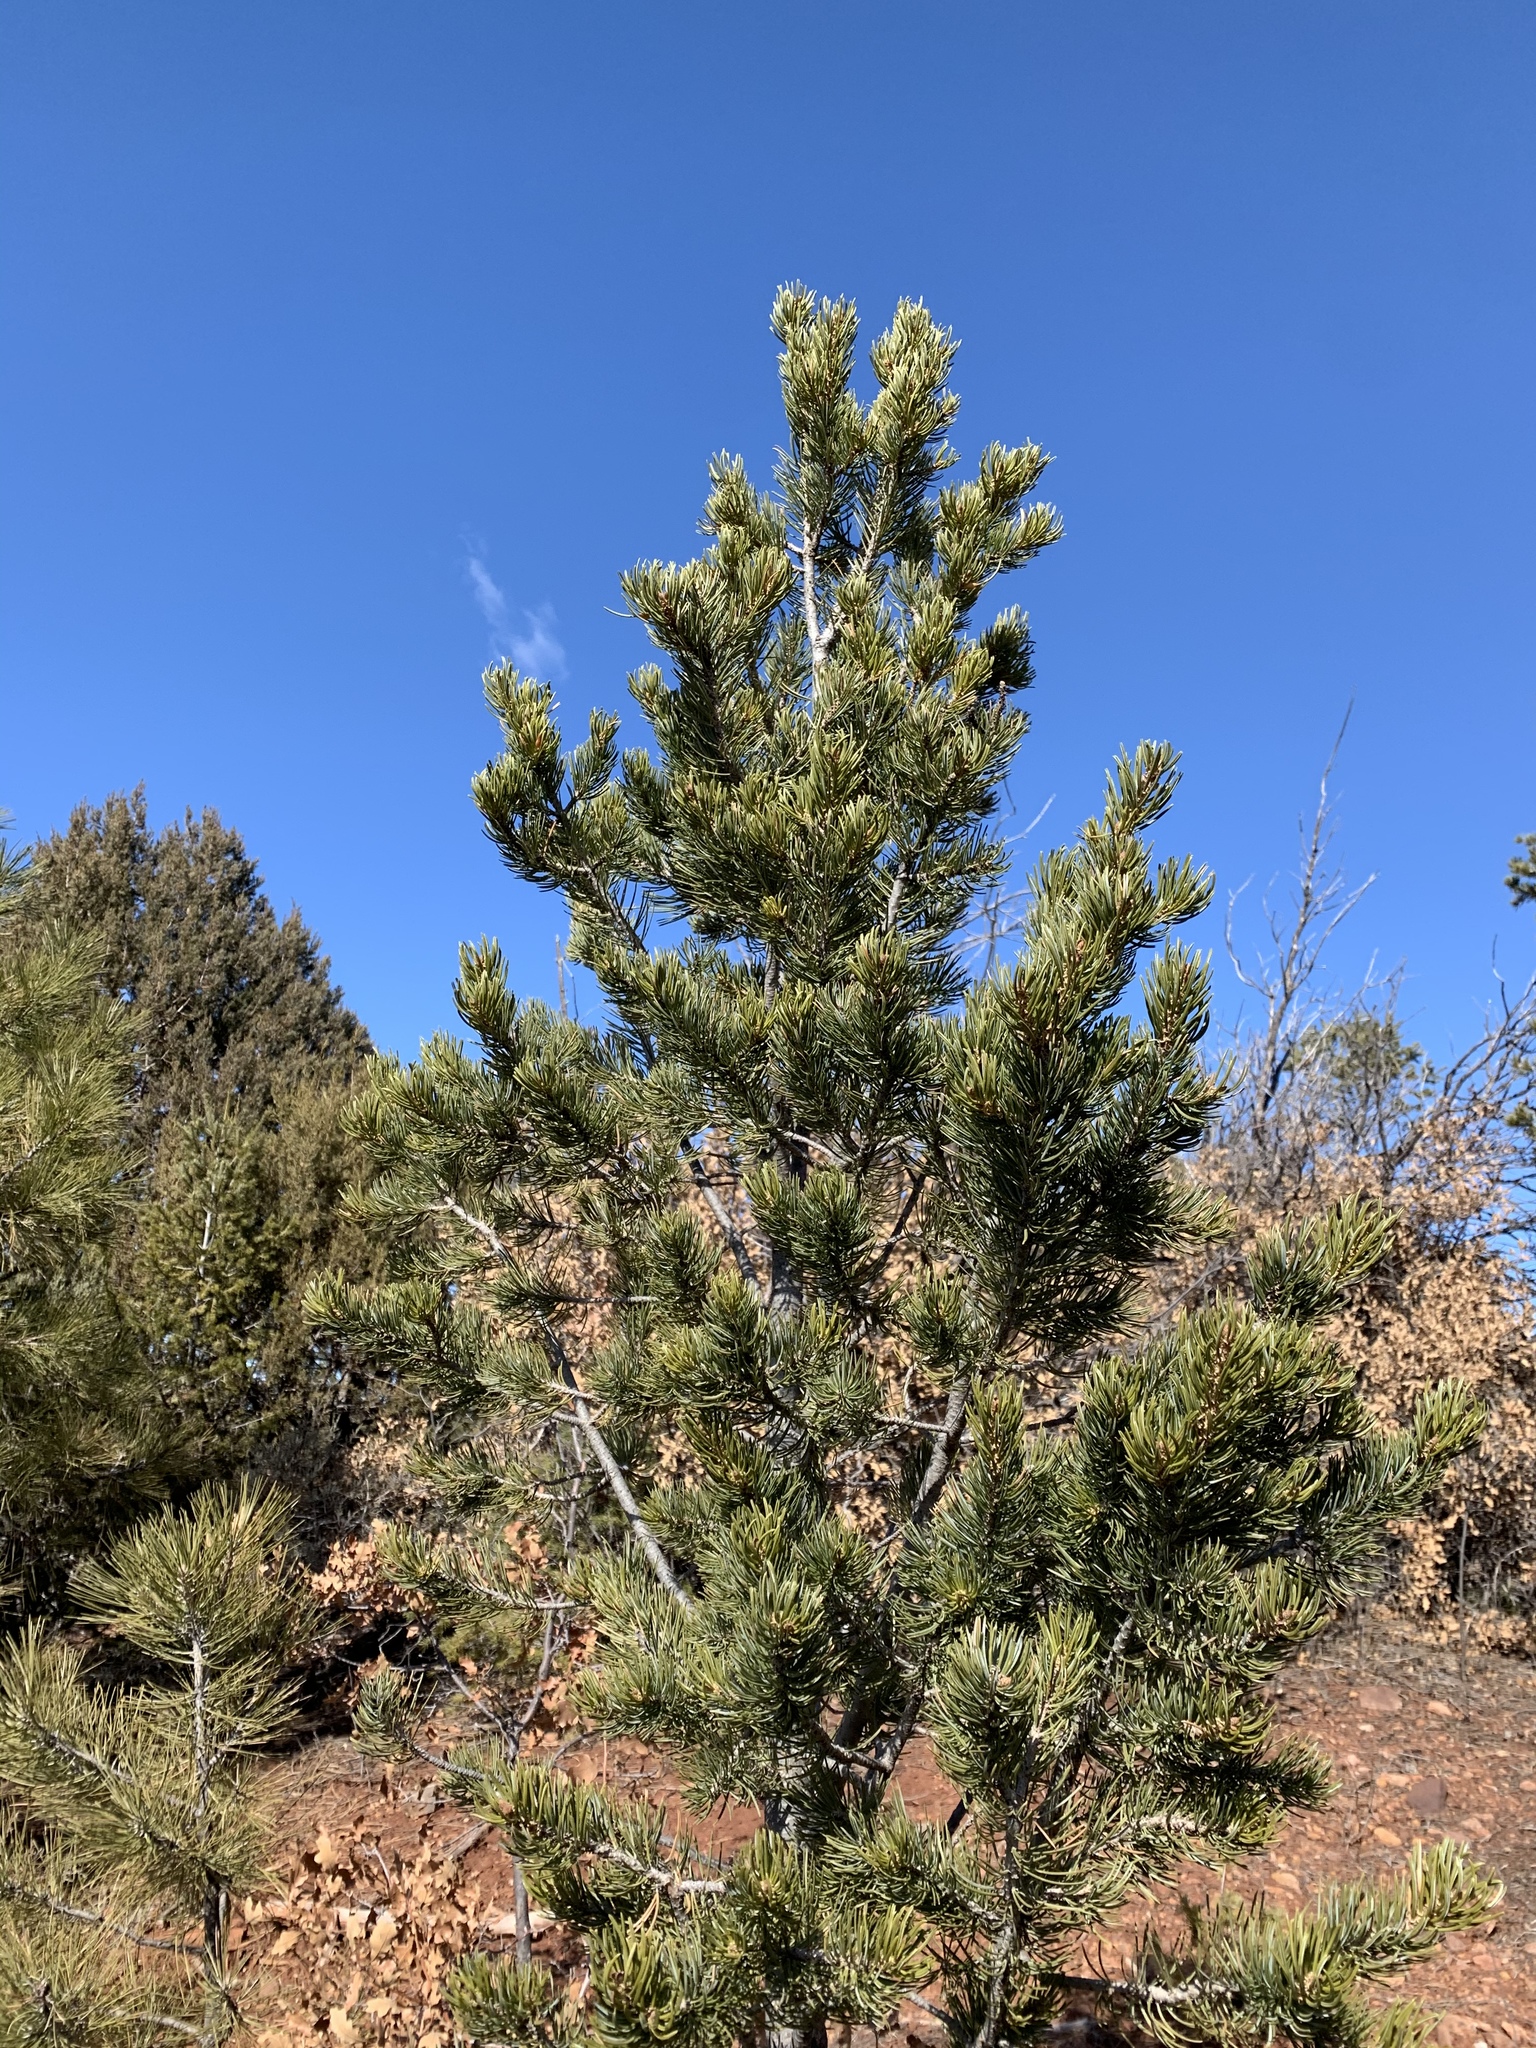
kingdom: Plantae
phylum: Tracheophyta
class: Pinopsida
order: Pinales
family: Pinaceae
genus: Pinus
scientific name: Pinus edulis
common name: Colorado pinyon
